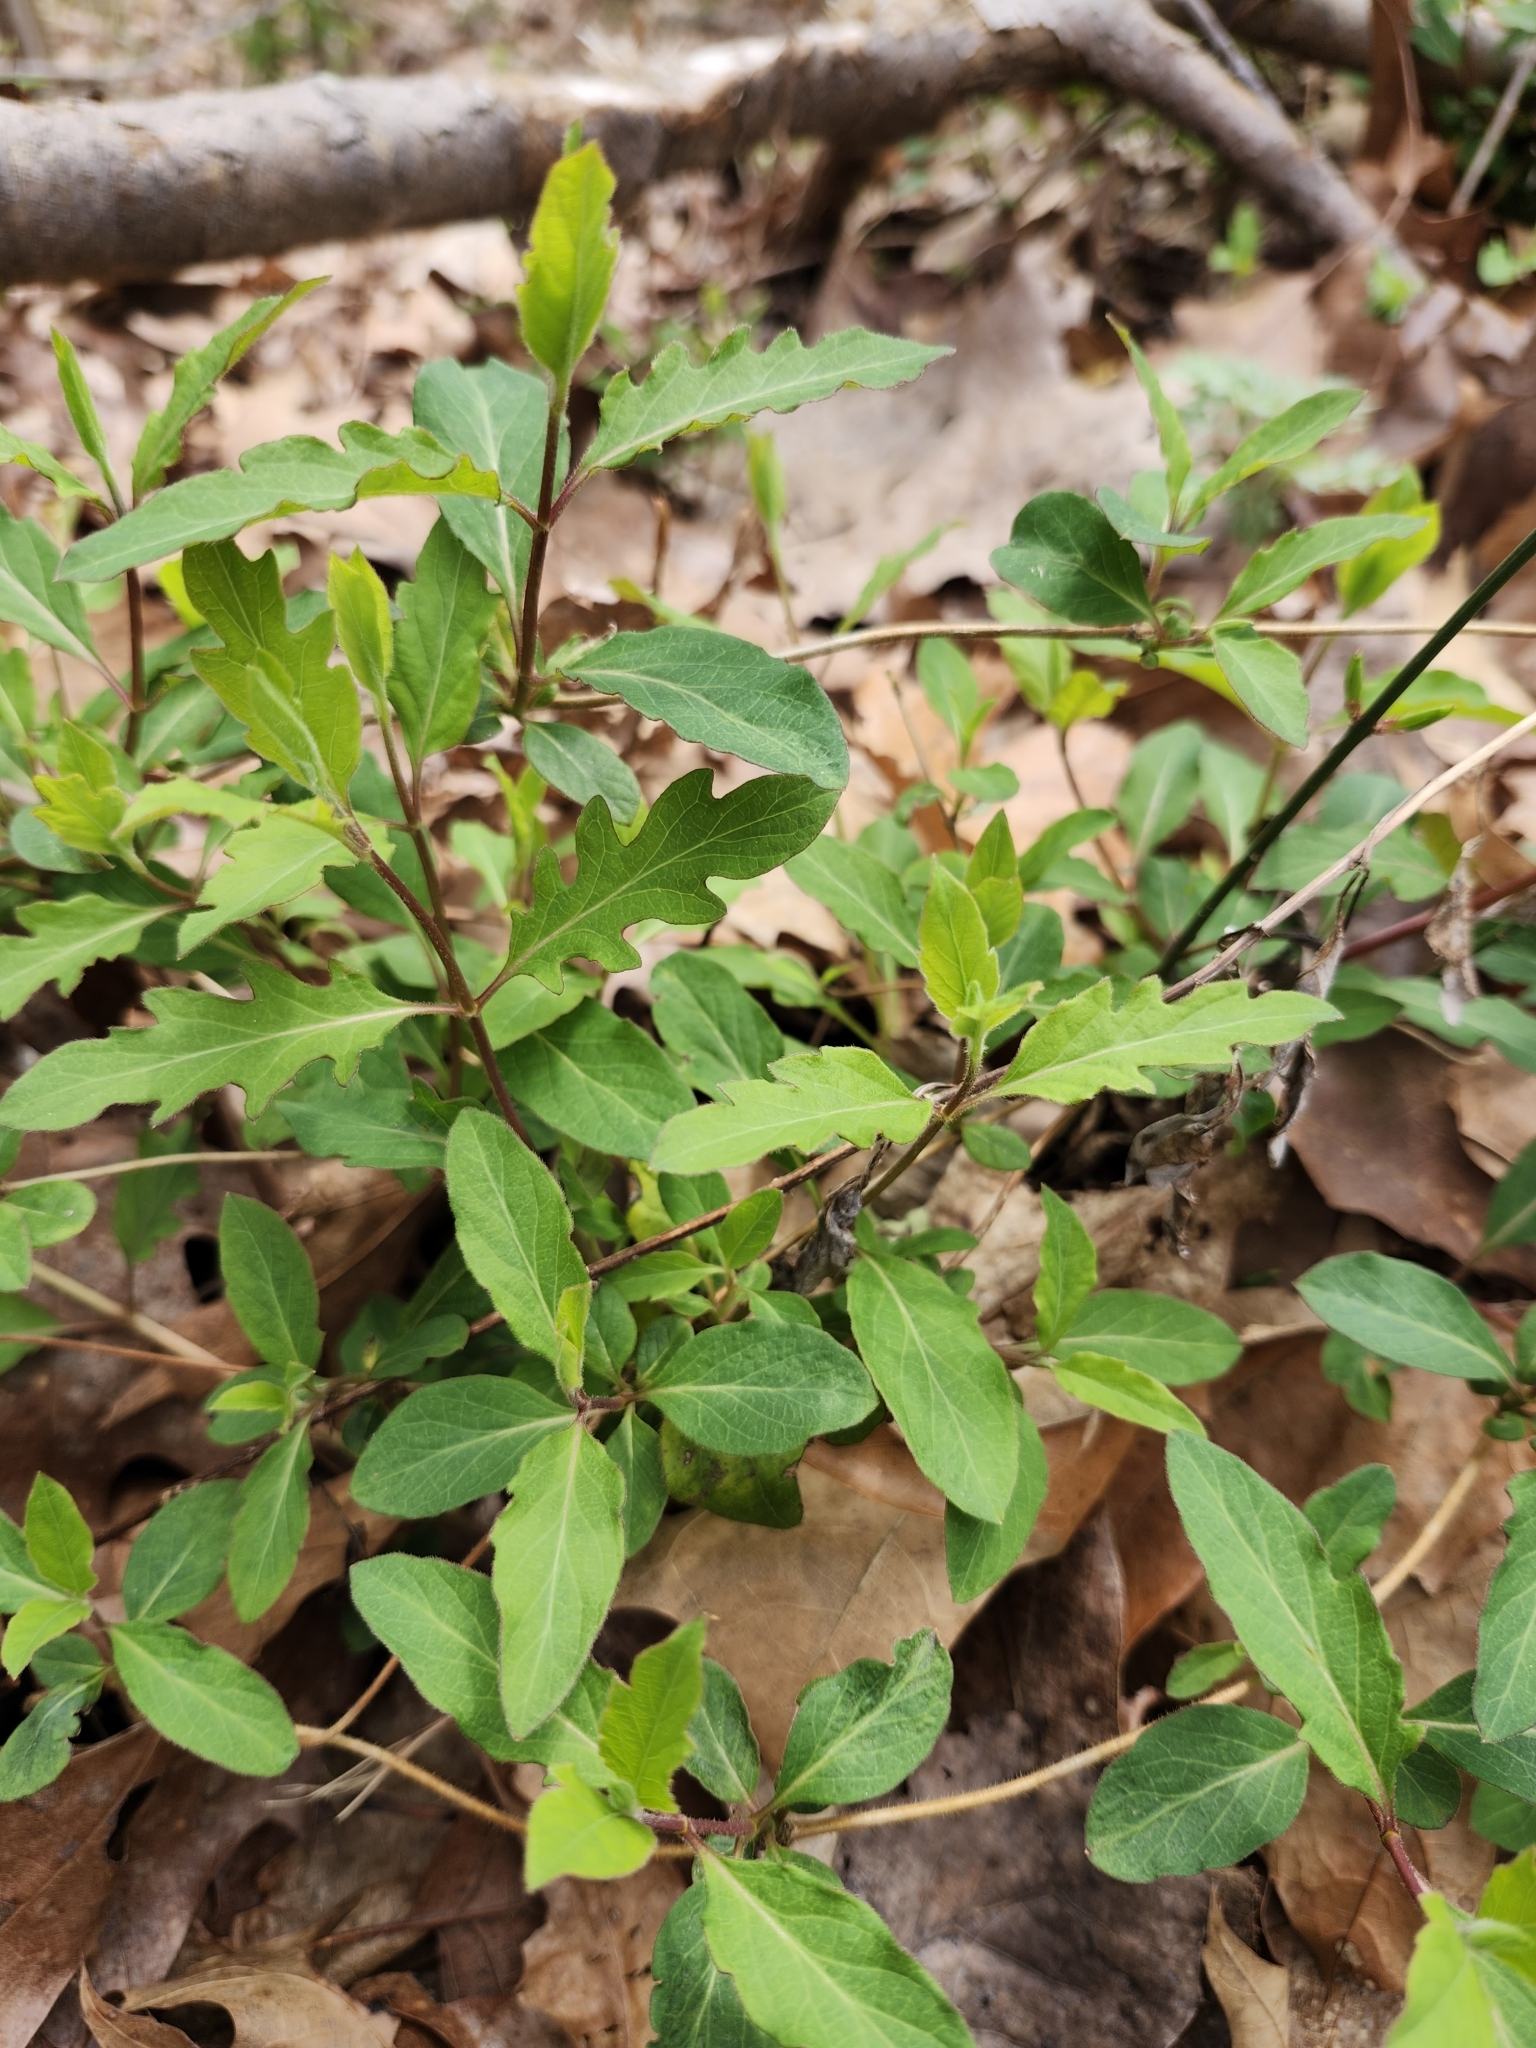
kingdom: Plantae
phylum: Tracheophyta
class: Magnoliopsida
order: Dipsacales
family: Caprifoliaceae
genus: Lonicera
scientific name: Lonicera japonica
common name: Japanese honeysuckle
